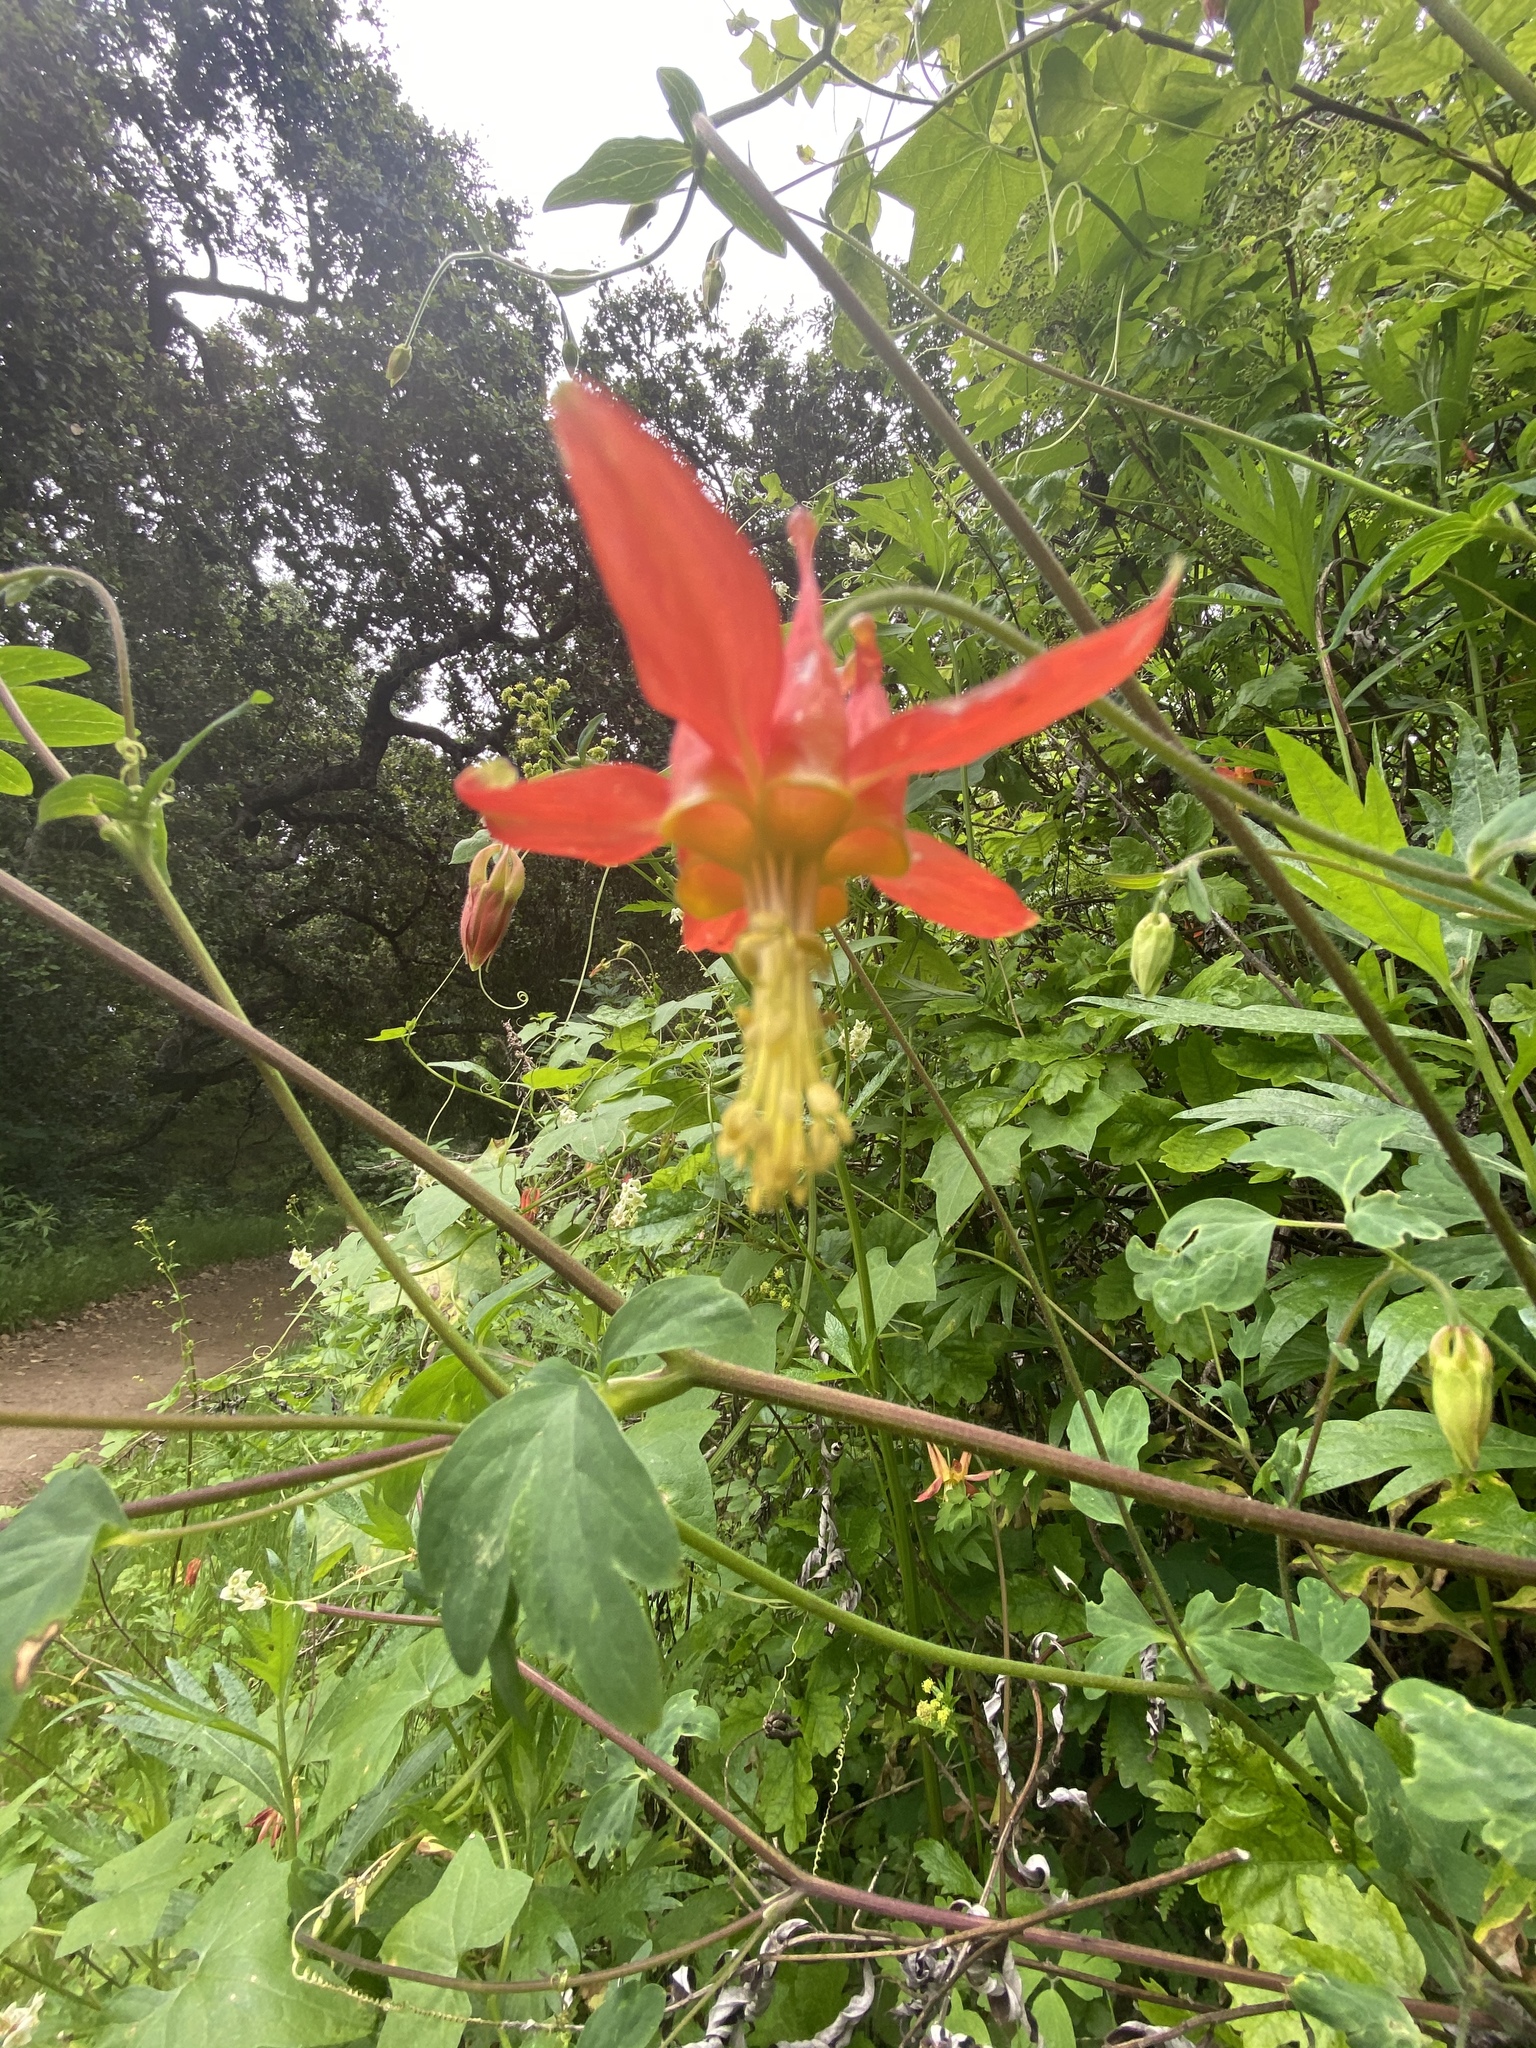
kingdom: Plantae
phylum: Tracheophyta
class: Magnoliopsida
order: Ranunculales
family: Ranunculaceae
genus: Aquilegia
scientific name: Aquilegia formosa
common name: Sitka columbine
